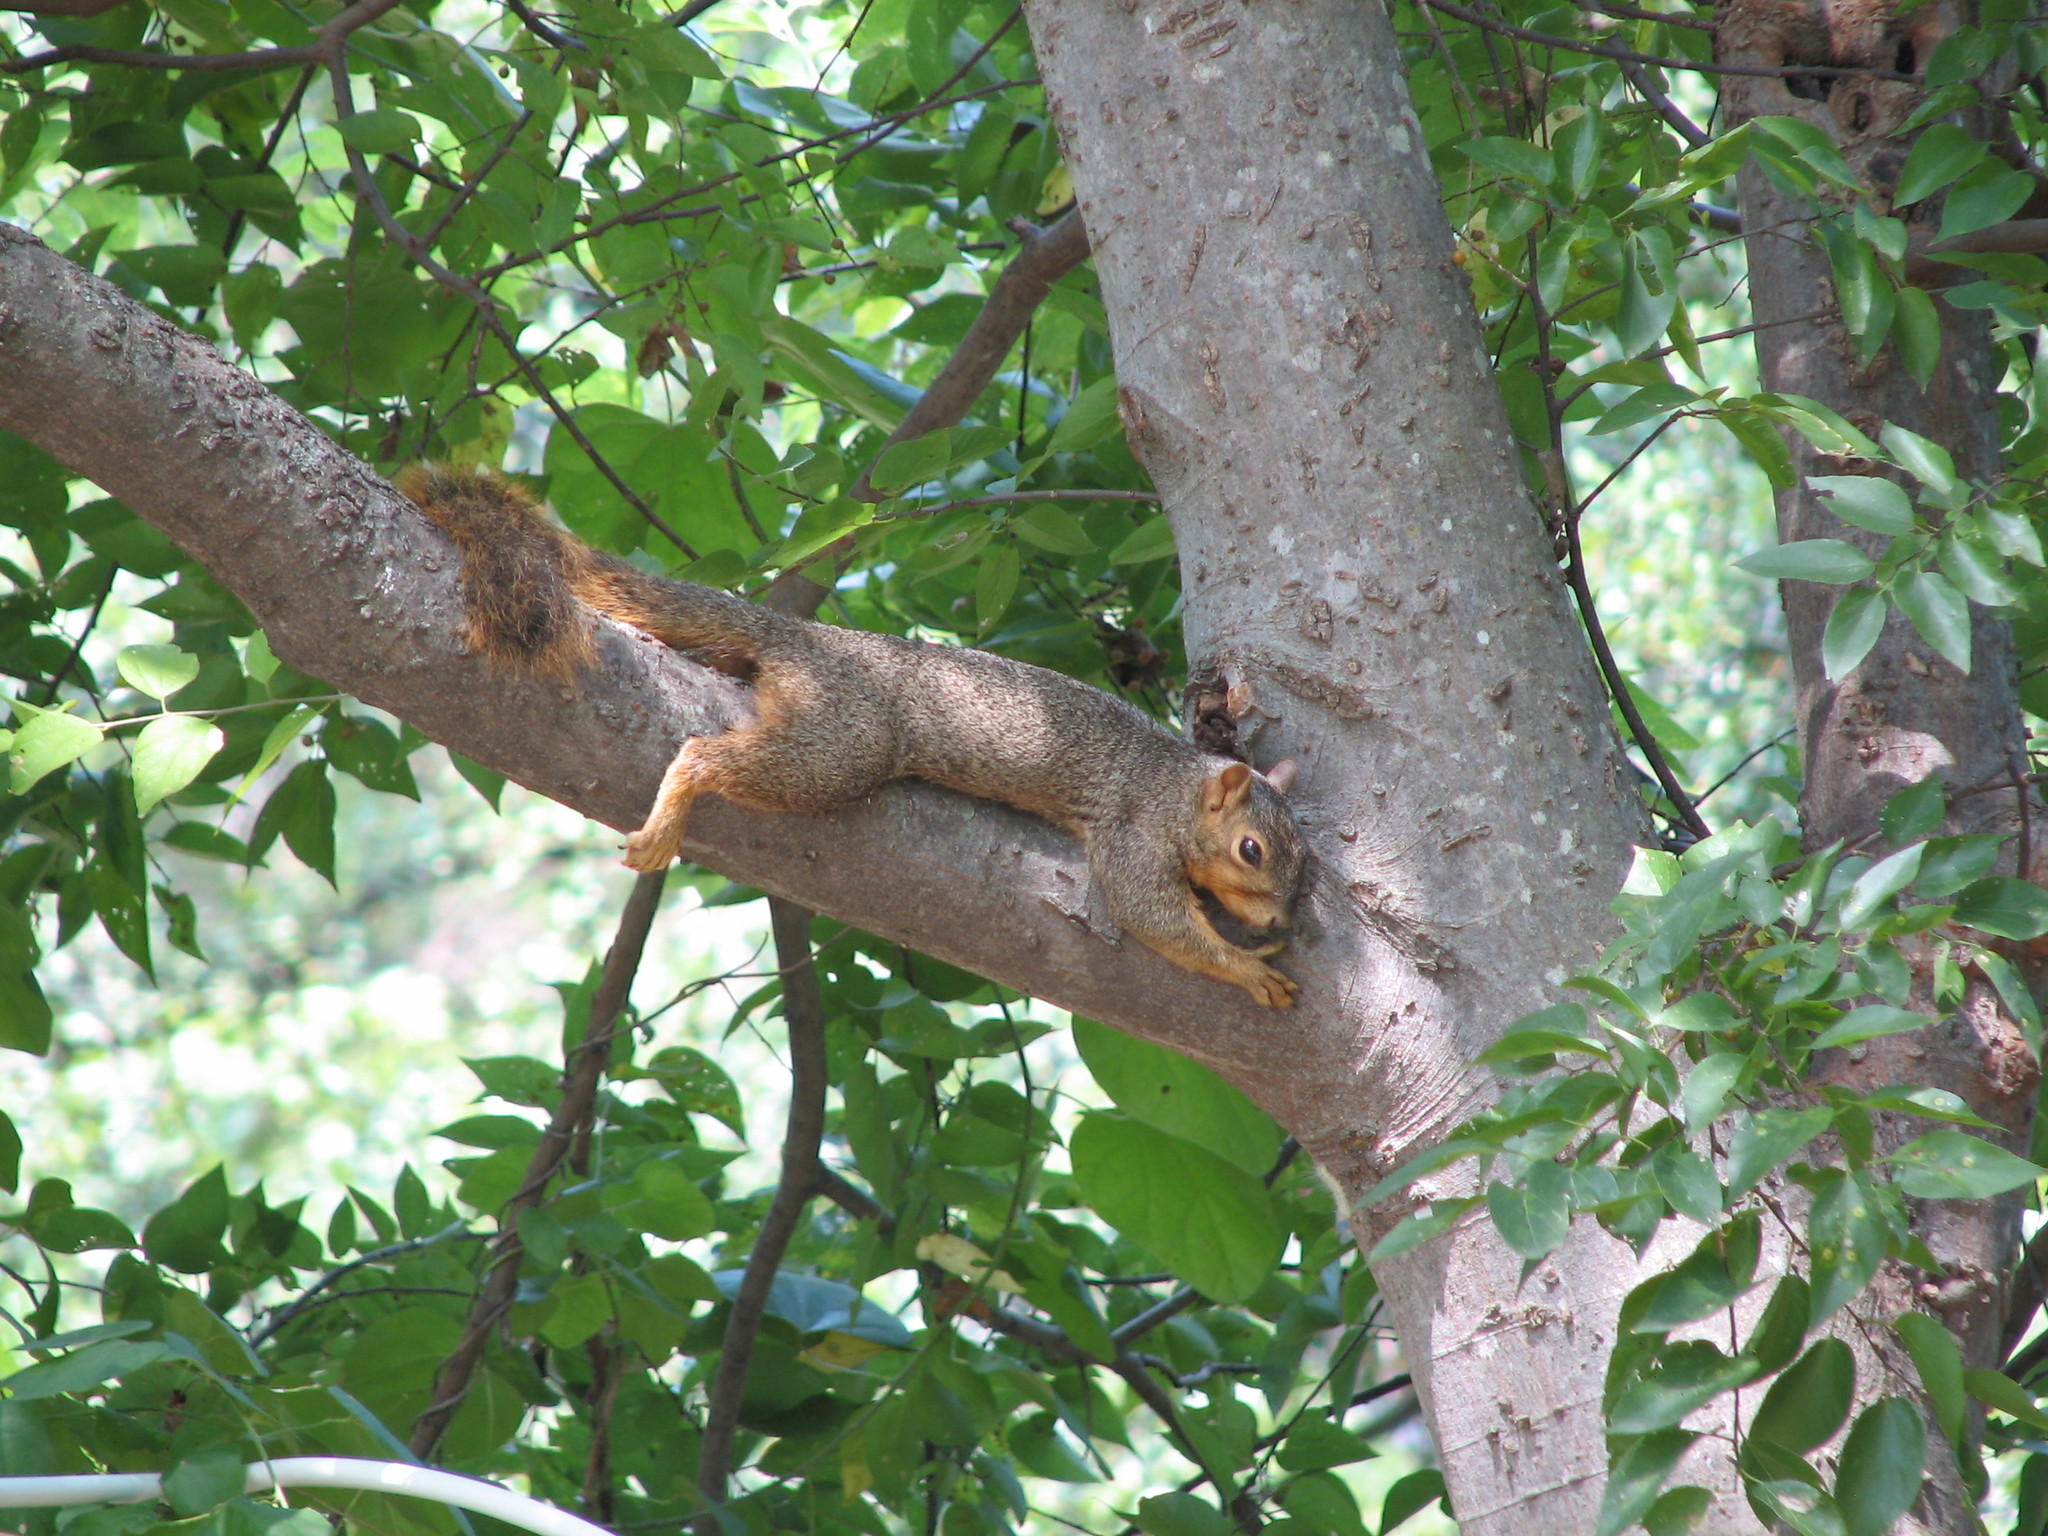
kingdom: Animalia
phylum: Chordata
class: Mammalia
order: Rodentia
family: Sciuridae
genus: Sciurus
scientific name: Sciurus niger
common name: Fox squirrel
